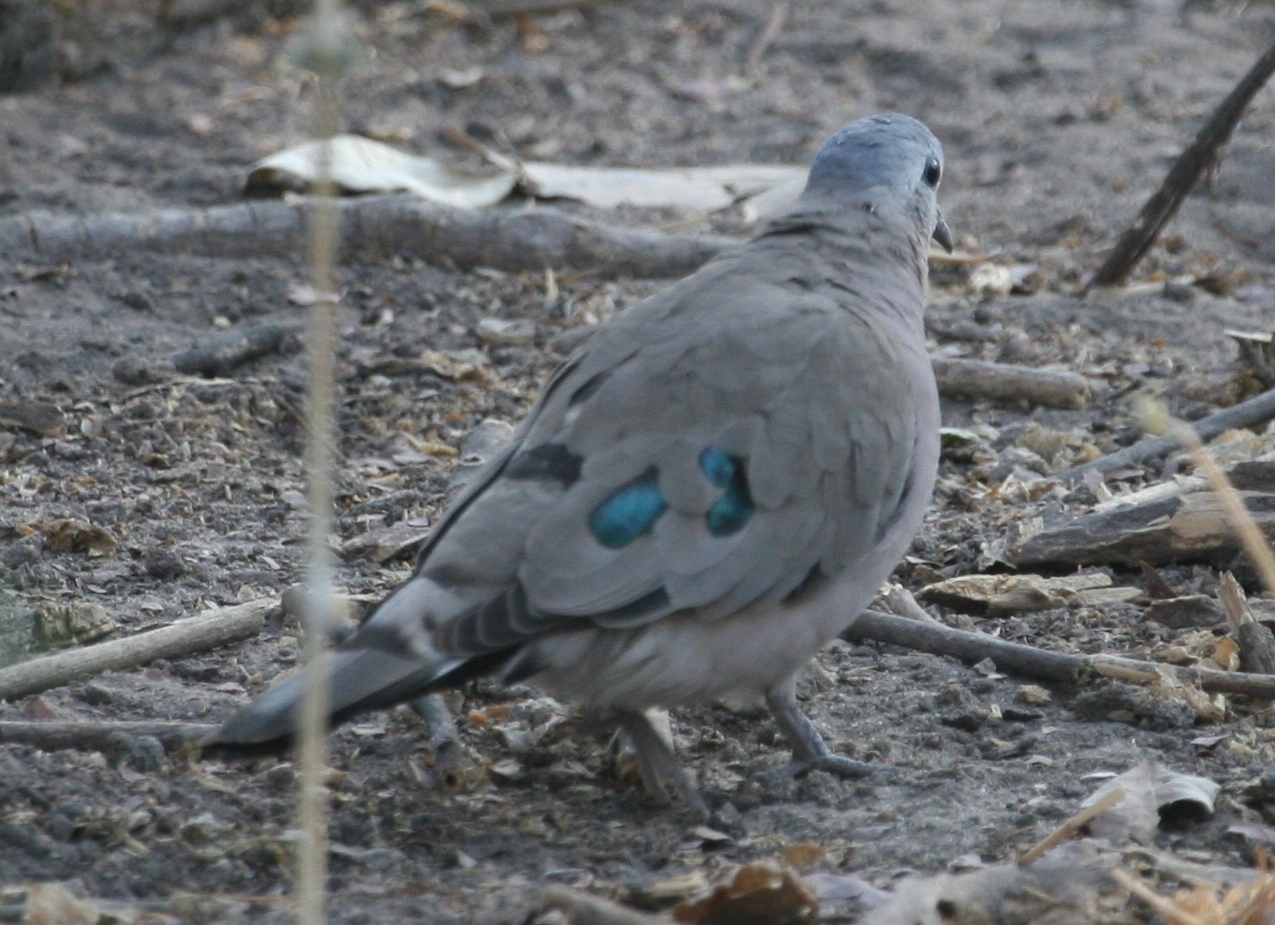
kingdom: Animalia
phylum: Chordata
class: Aves
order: Columbiformes
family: Columbidae
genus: Turtur
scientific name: Turtur chalcospilos
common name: Emerald-spotted wood dove
